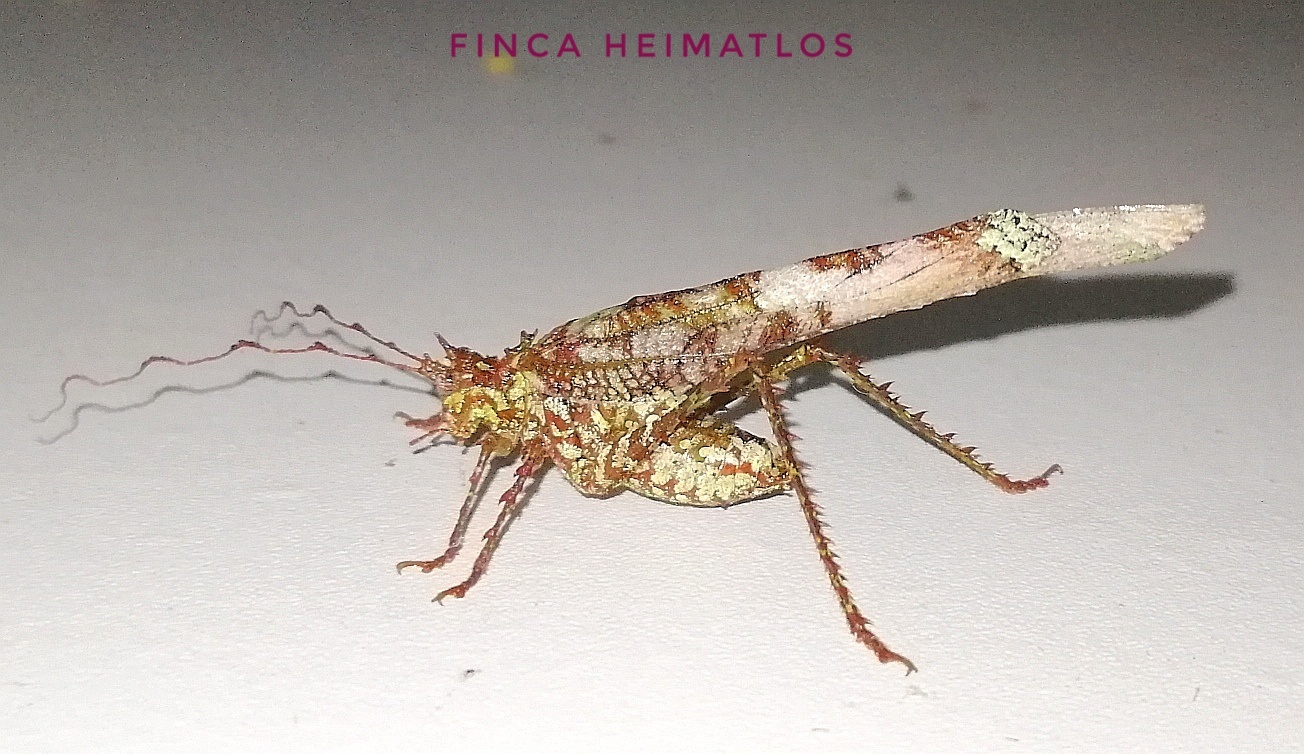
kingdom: Animalia
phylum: Arthropoda
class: Insecta
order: Orthoptera
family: Tettigoniidae
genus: Anaphidna
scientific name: Anaphidna rubricorpus
